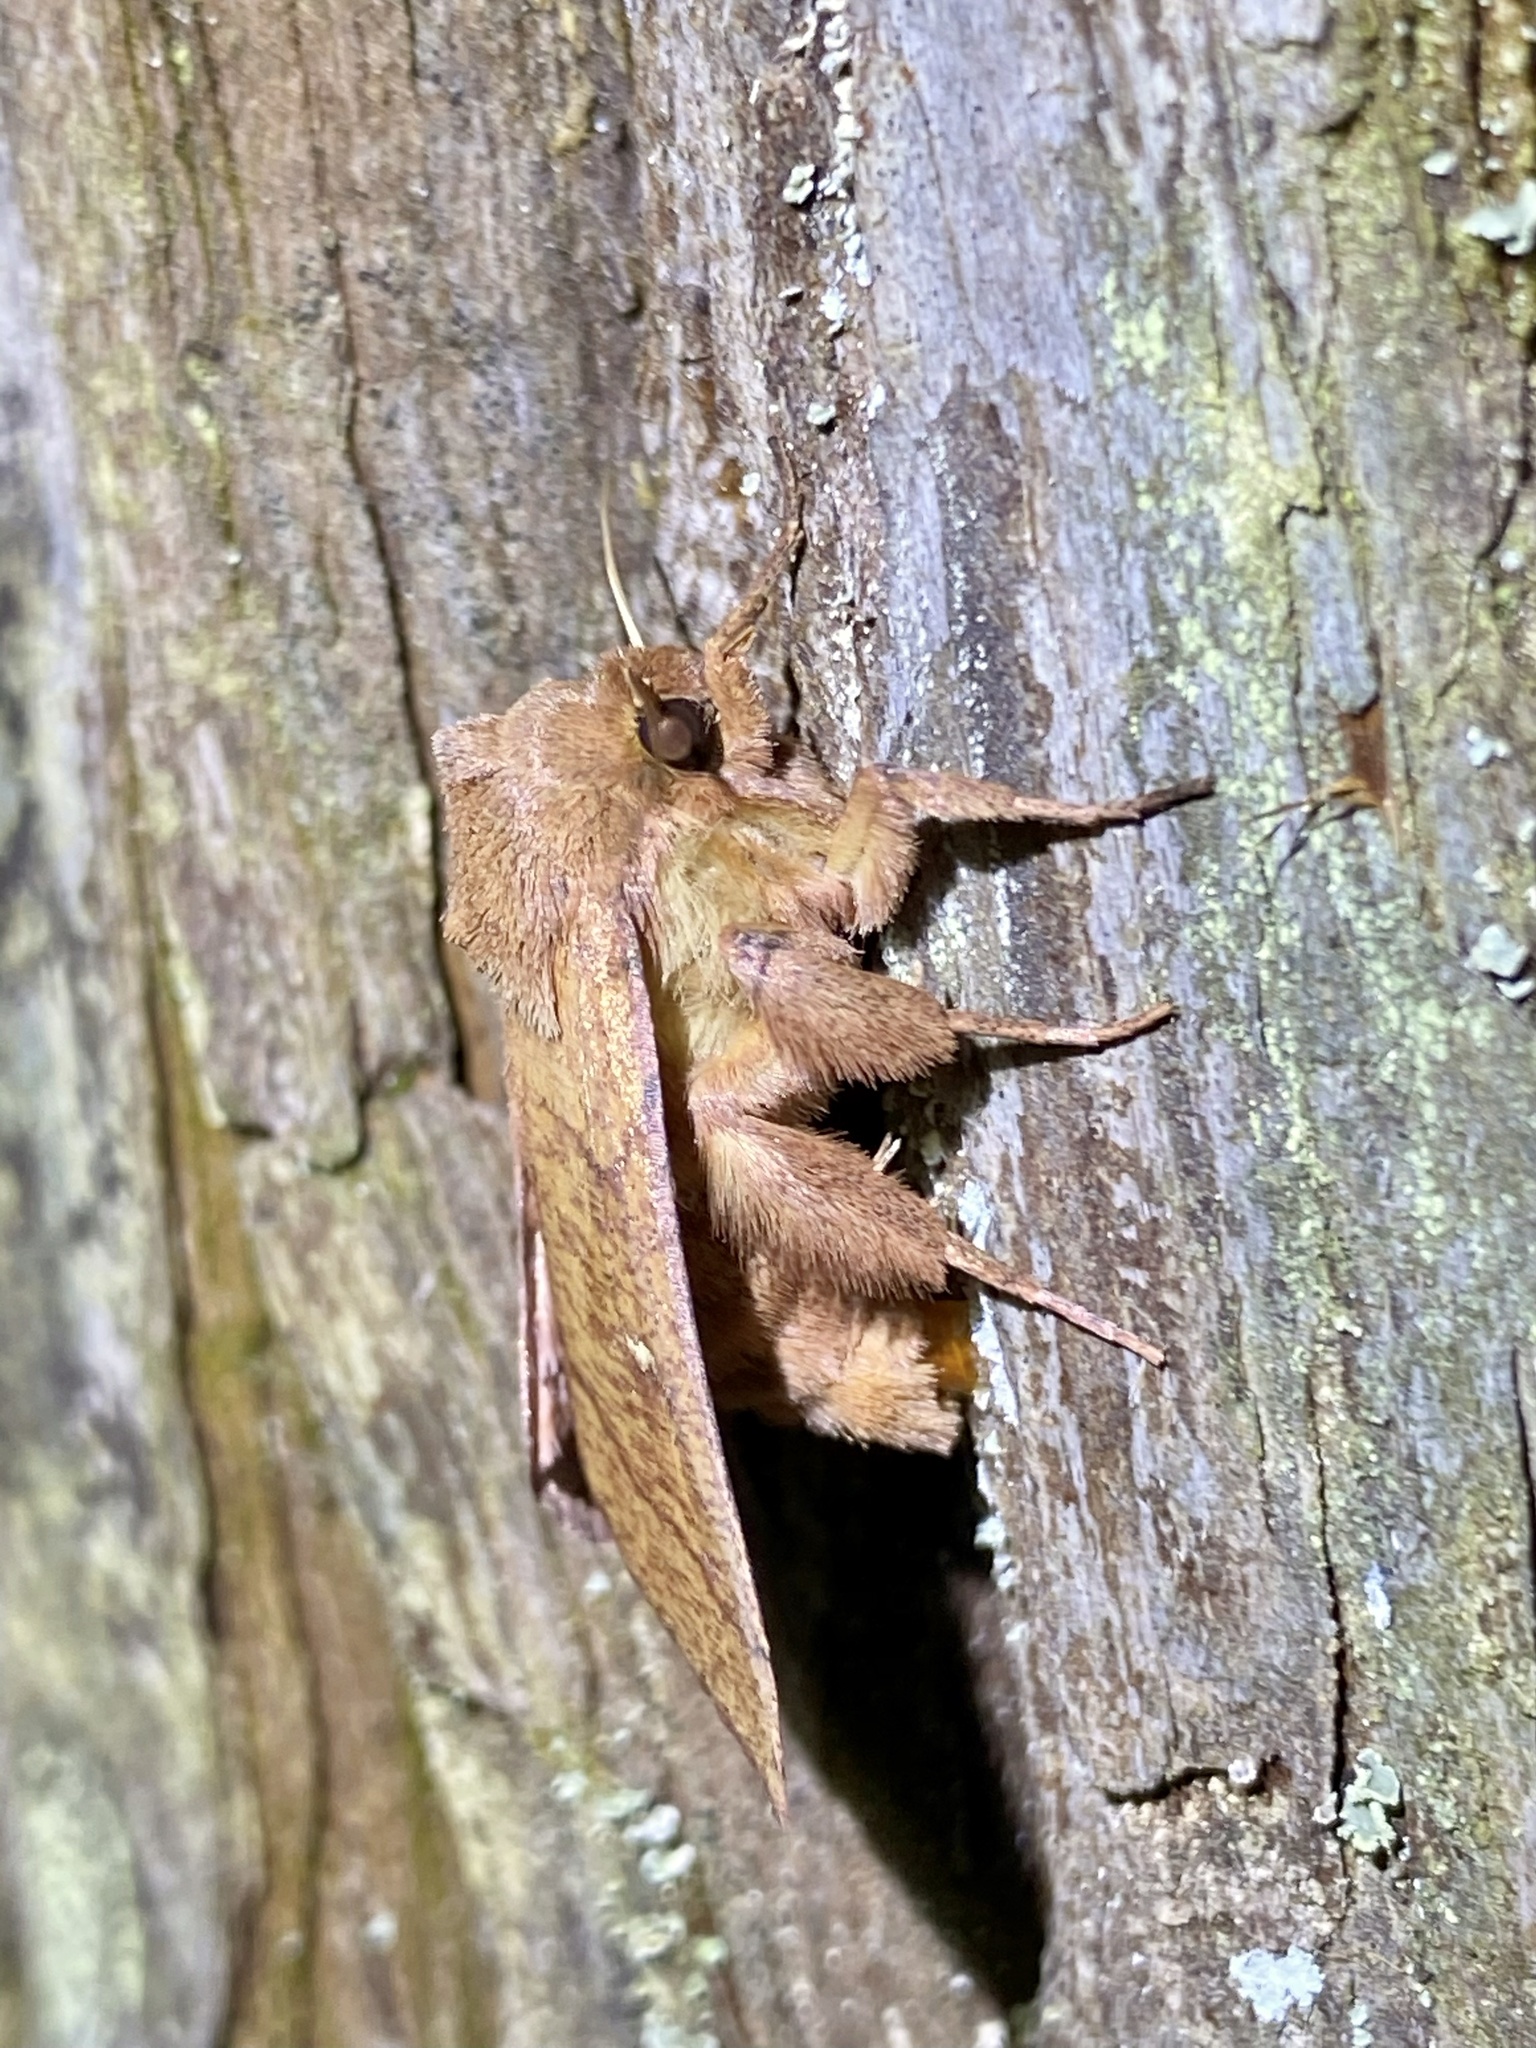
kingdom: Animalia
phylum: Arthropoda
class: Insecta
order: Lepidoptera
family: Noctuidae
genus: Mythimna
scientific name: Mythimna turca
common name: Double line
